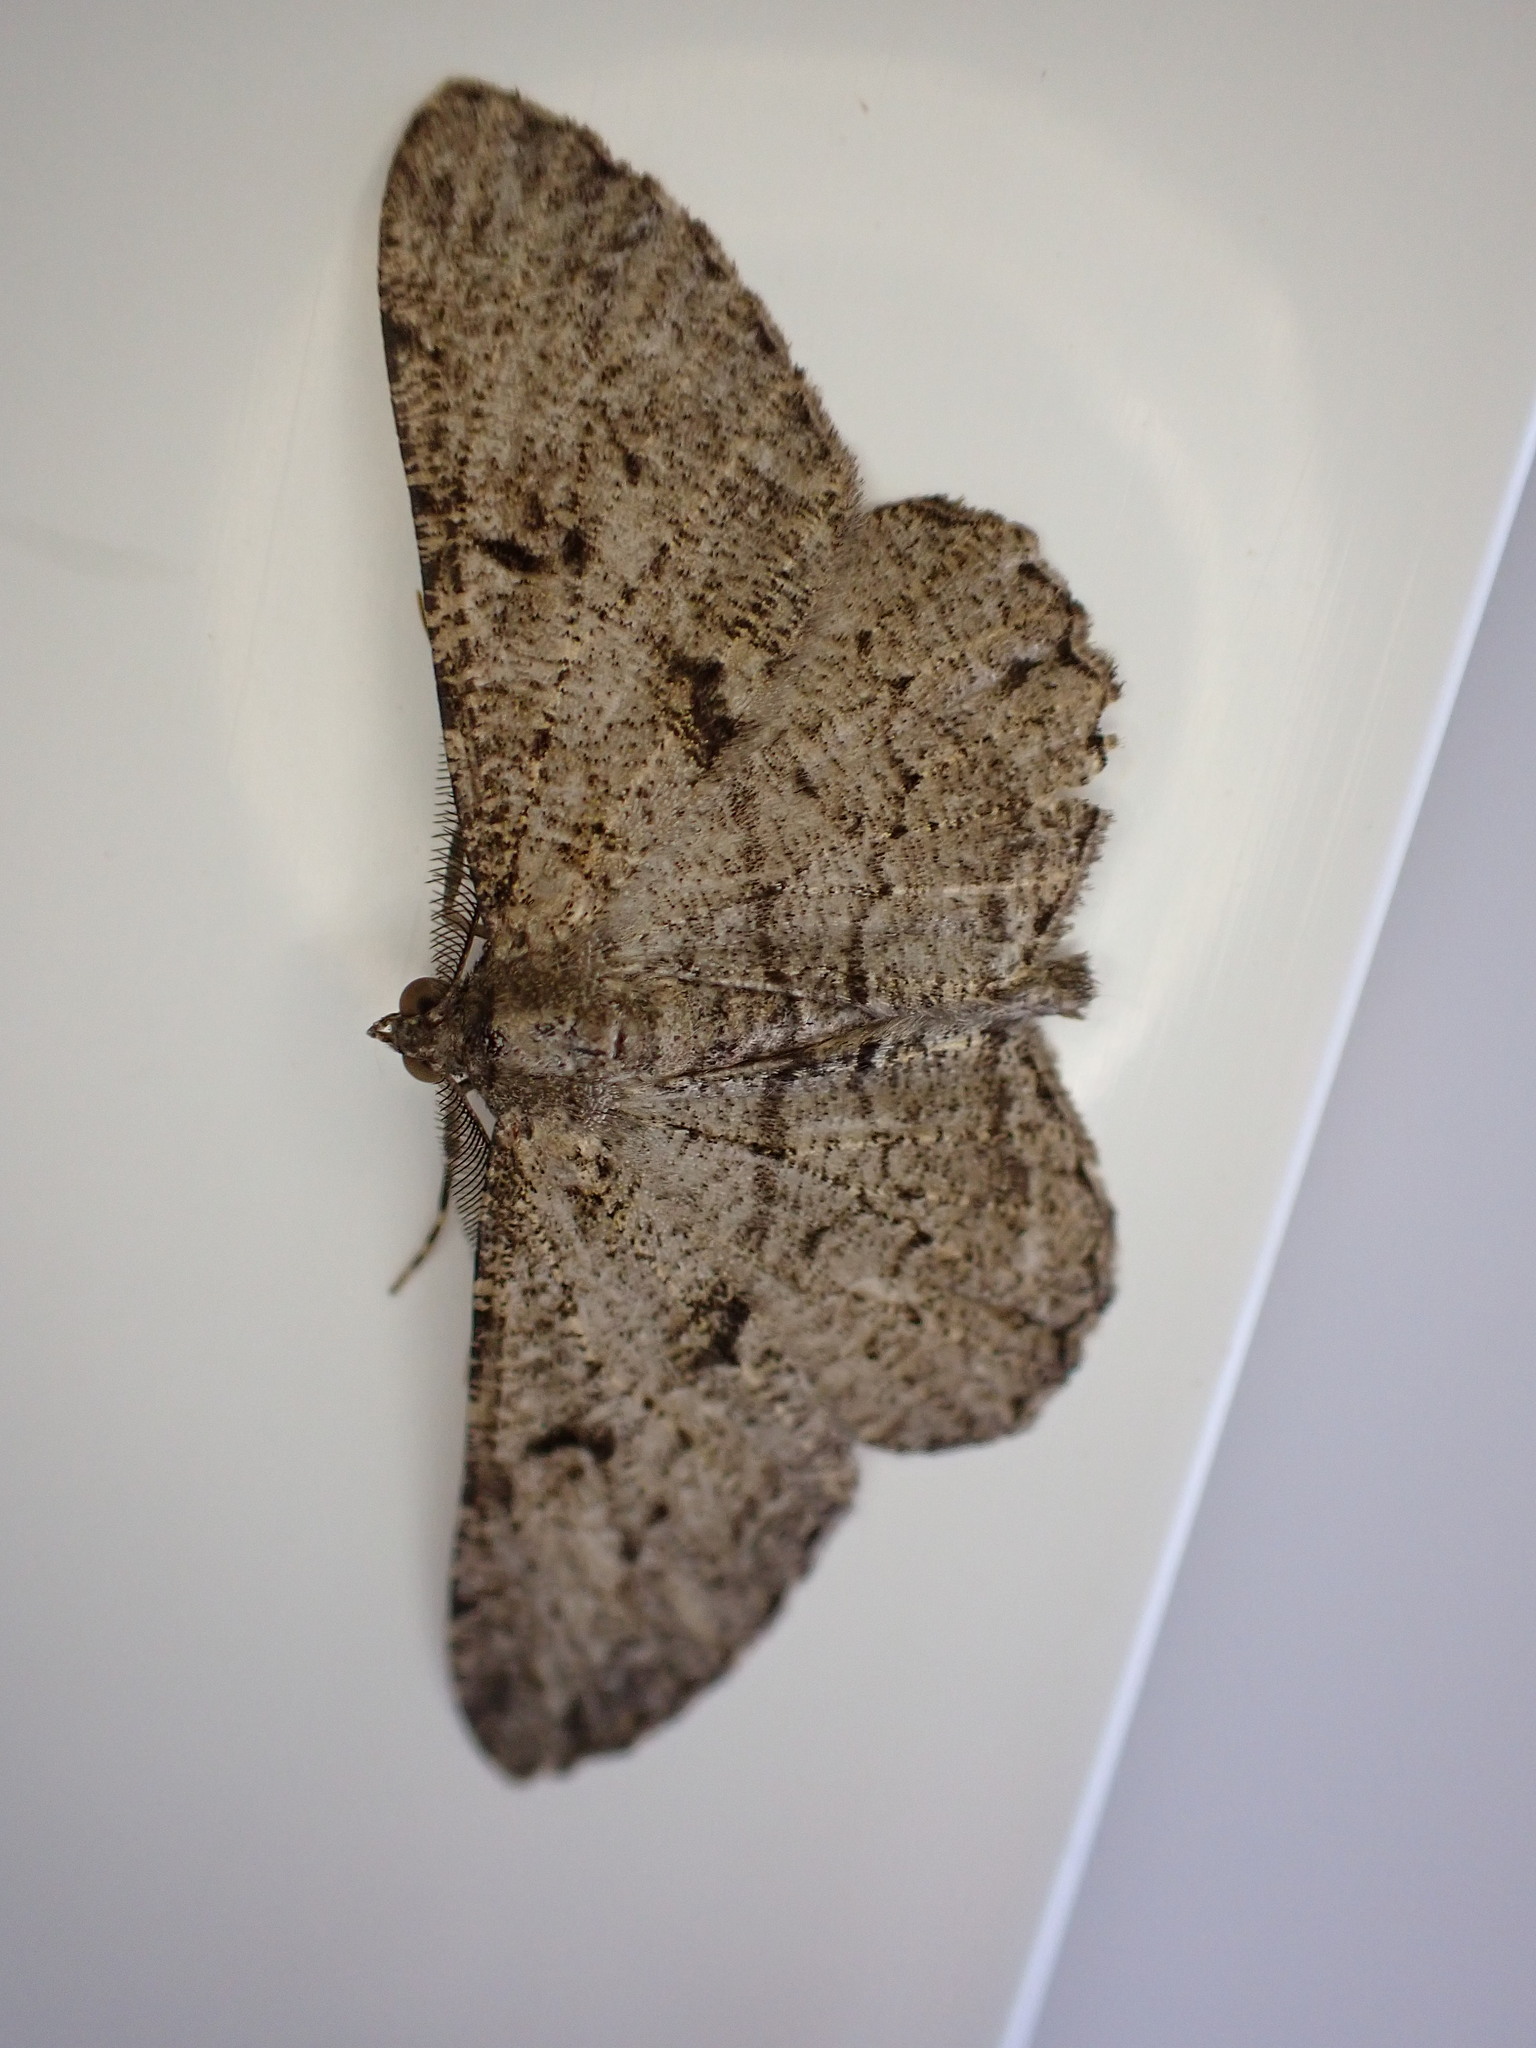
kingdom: Animalia
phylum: Arthropoda
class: Insecta
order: Lepidoptera
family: Geometridae
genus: Peribatodes
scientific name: Peribatodes rhomboidaria
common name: Willow beauty
